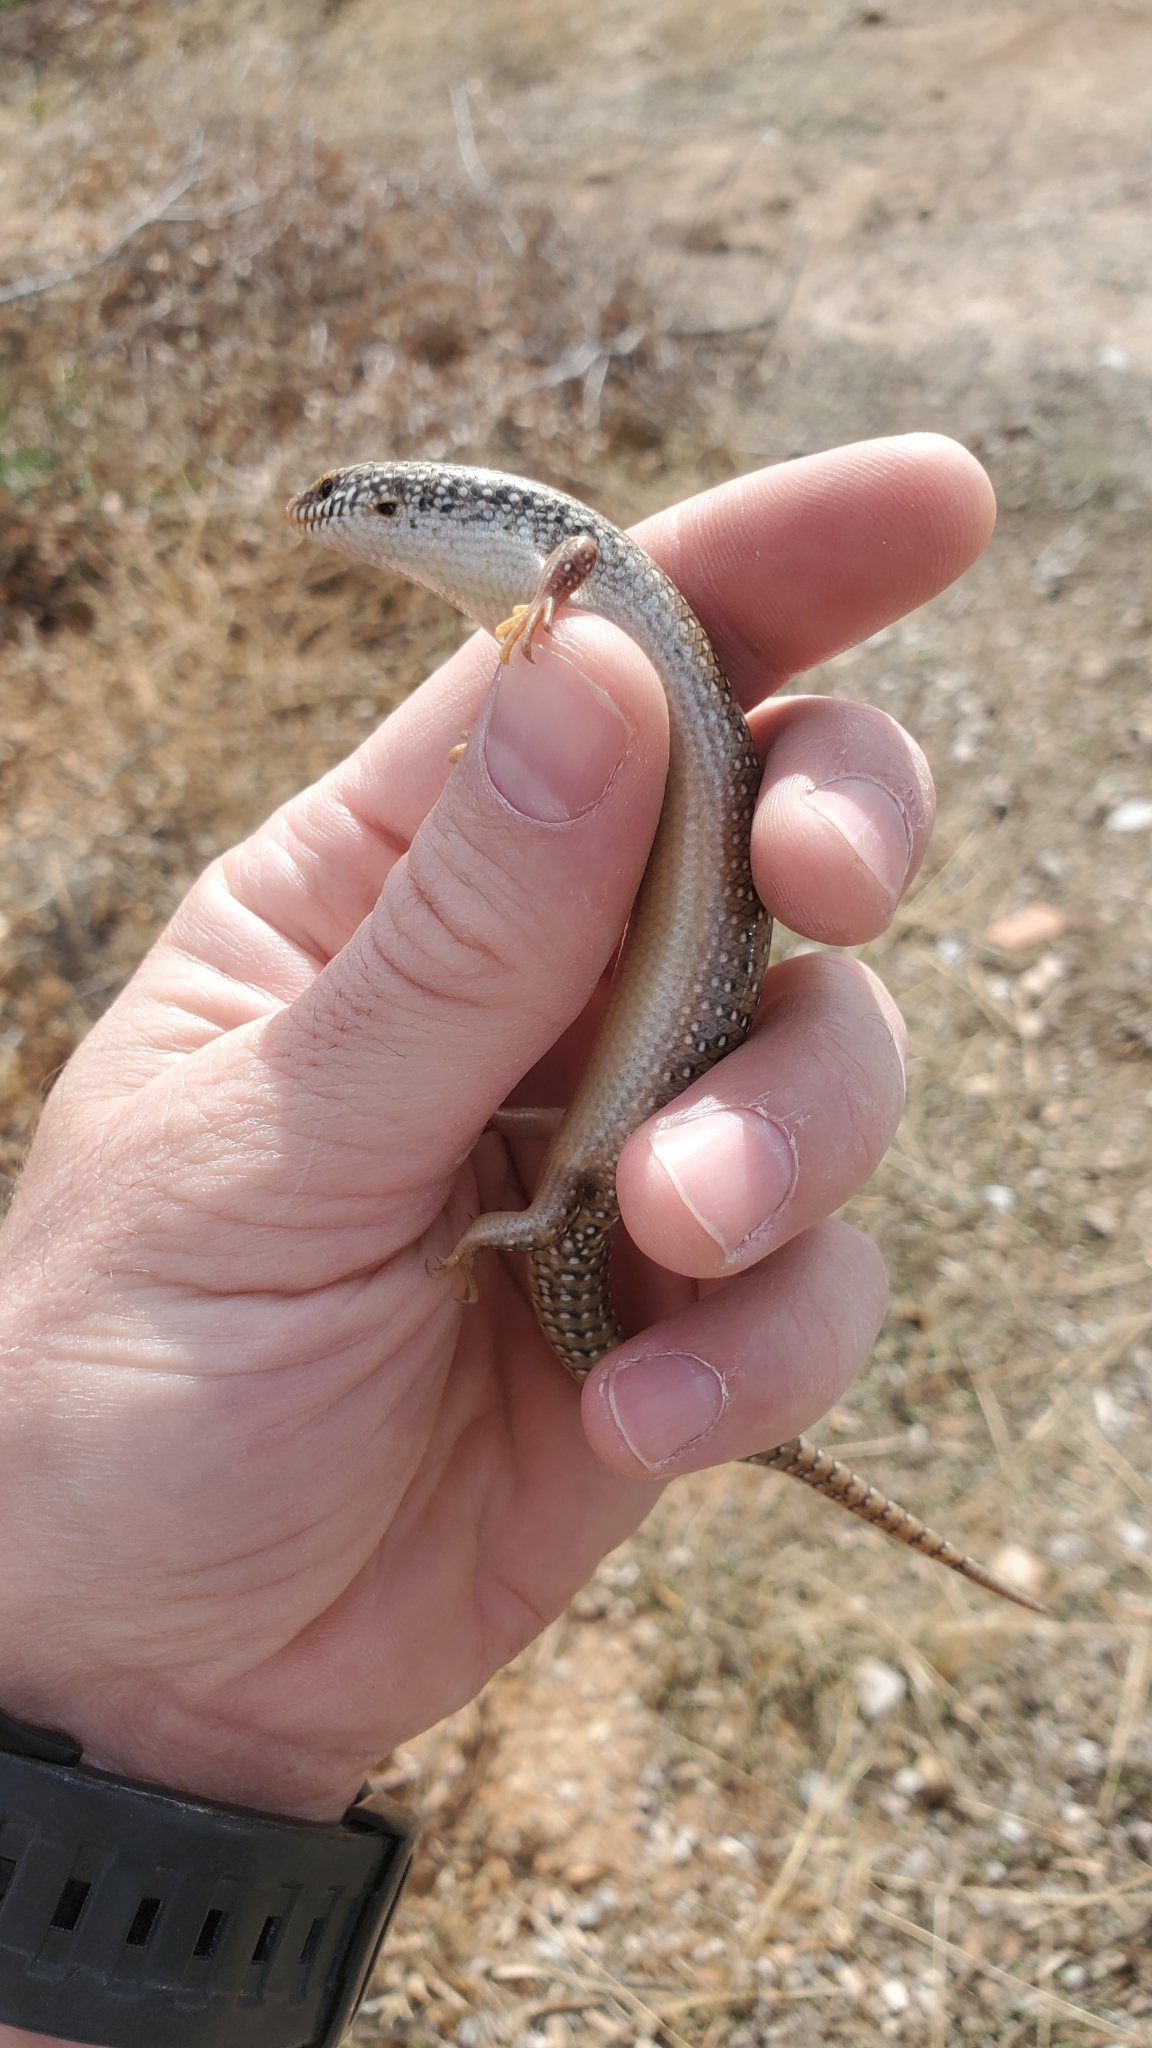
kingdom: Animalia
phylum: Chordata
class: Squamata
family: Scincidae
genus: Chalcides
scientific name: Chalcides ocellatus
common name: Ocellated skink
